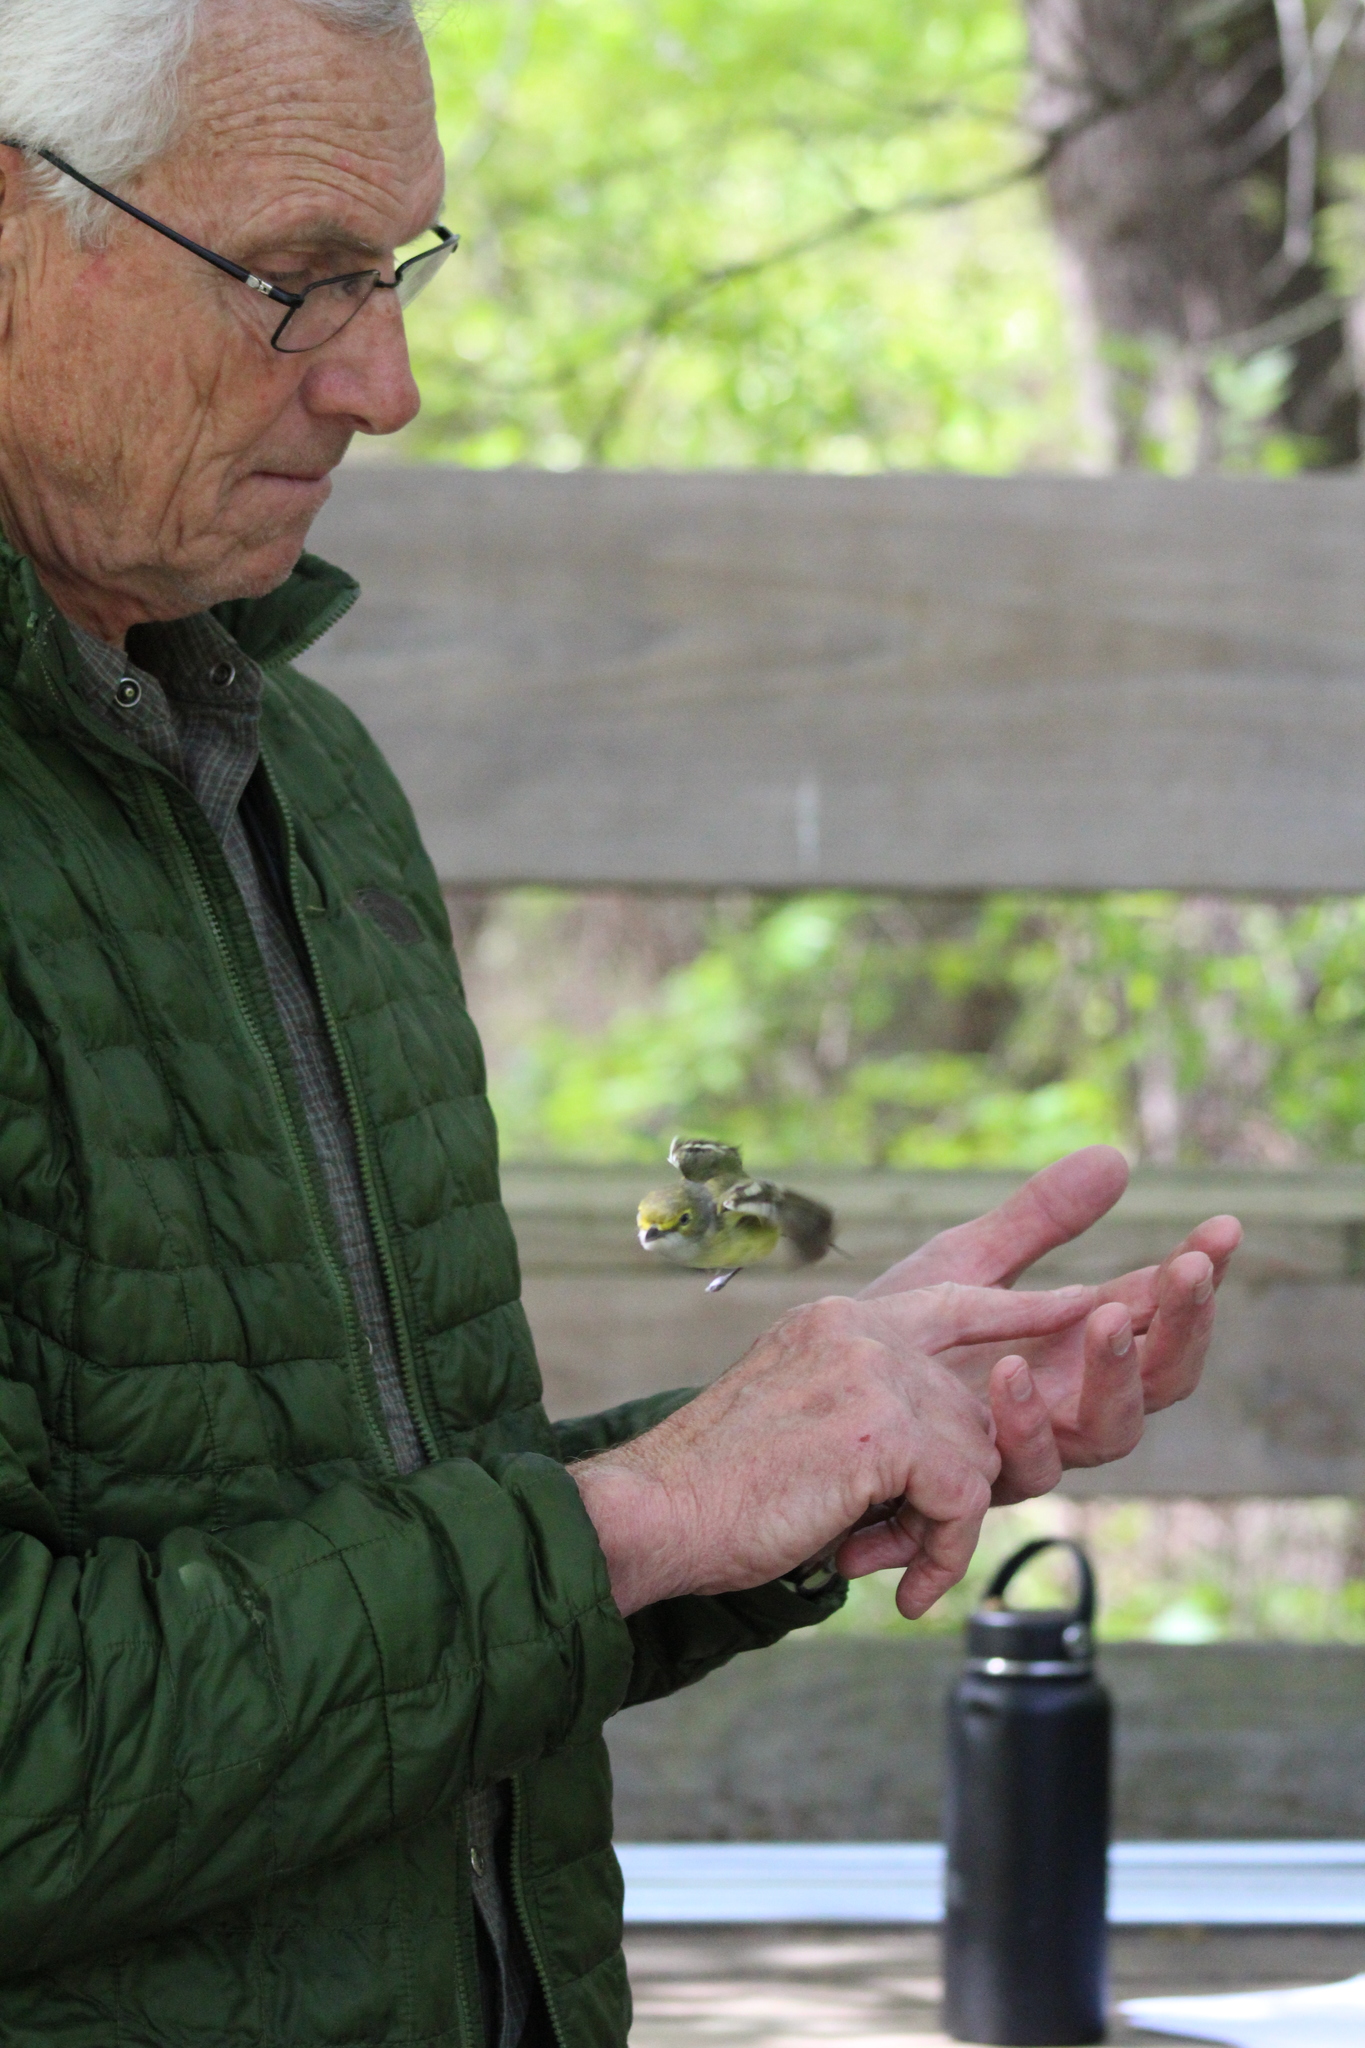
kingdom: Animalia
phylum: Chordata
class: Aves
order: Passeriformes
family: Vireonidae
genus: Vireo
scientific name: Vireo griseus
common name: White-eyed vireo
